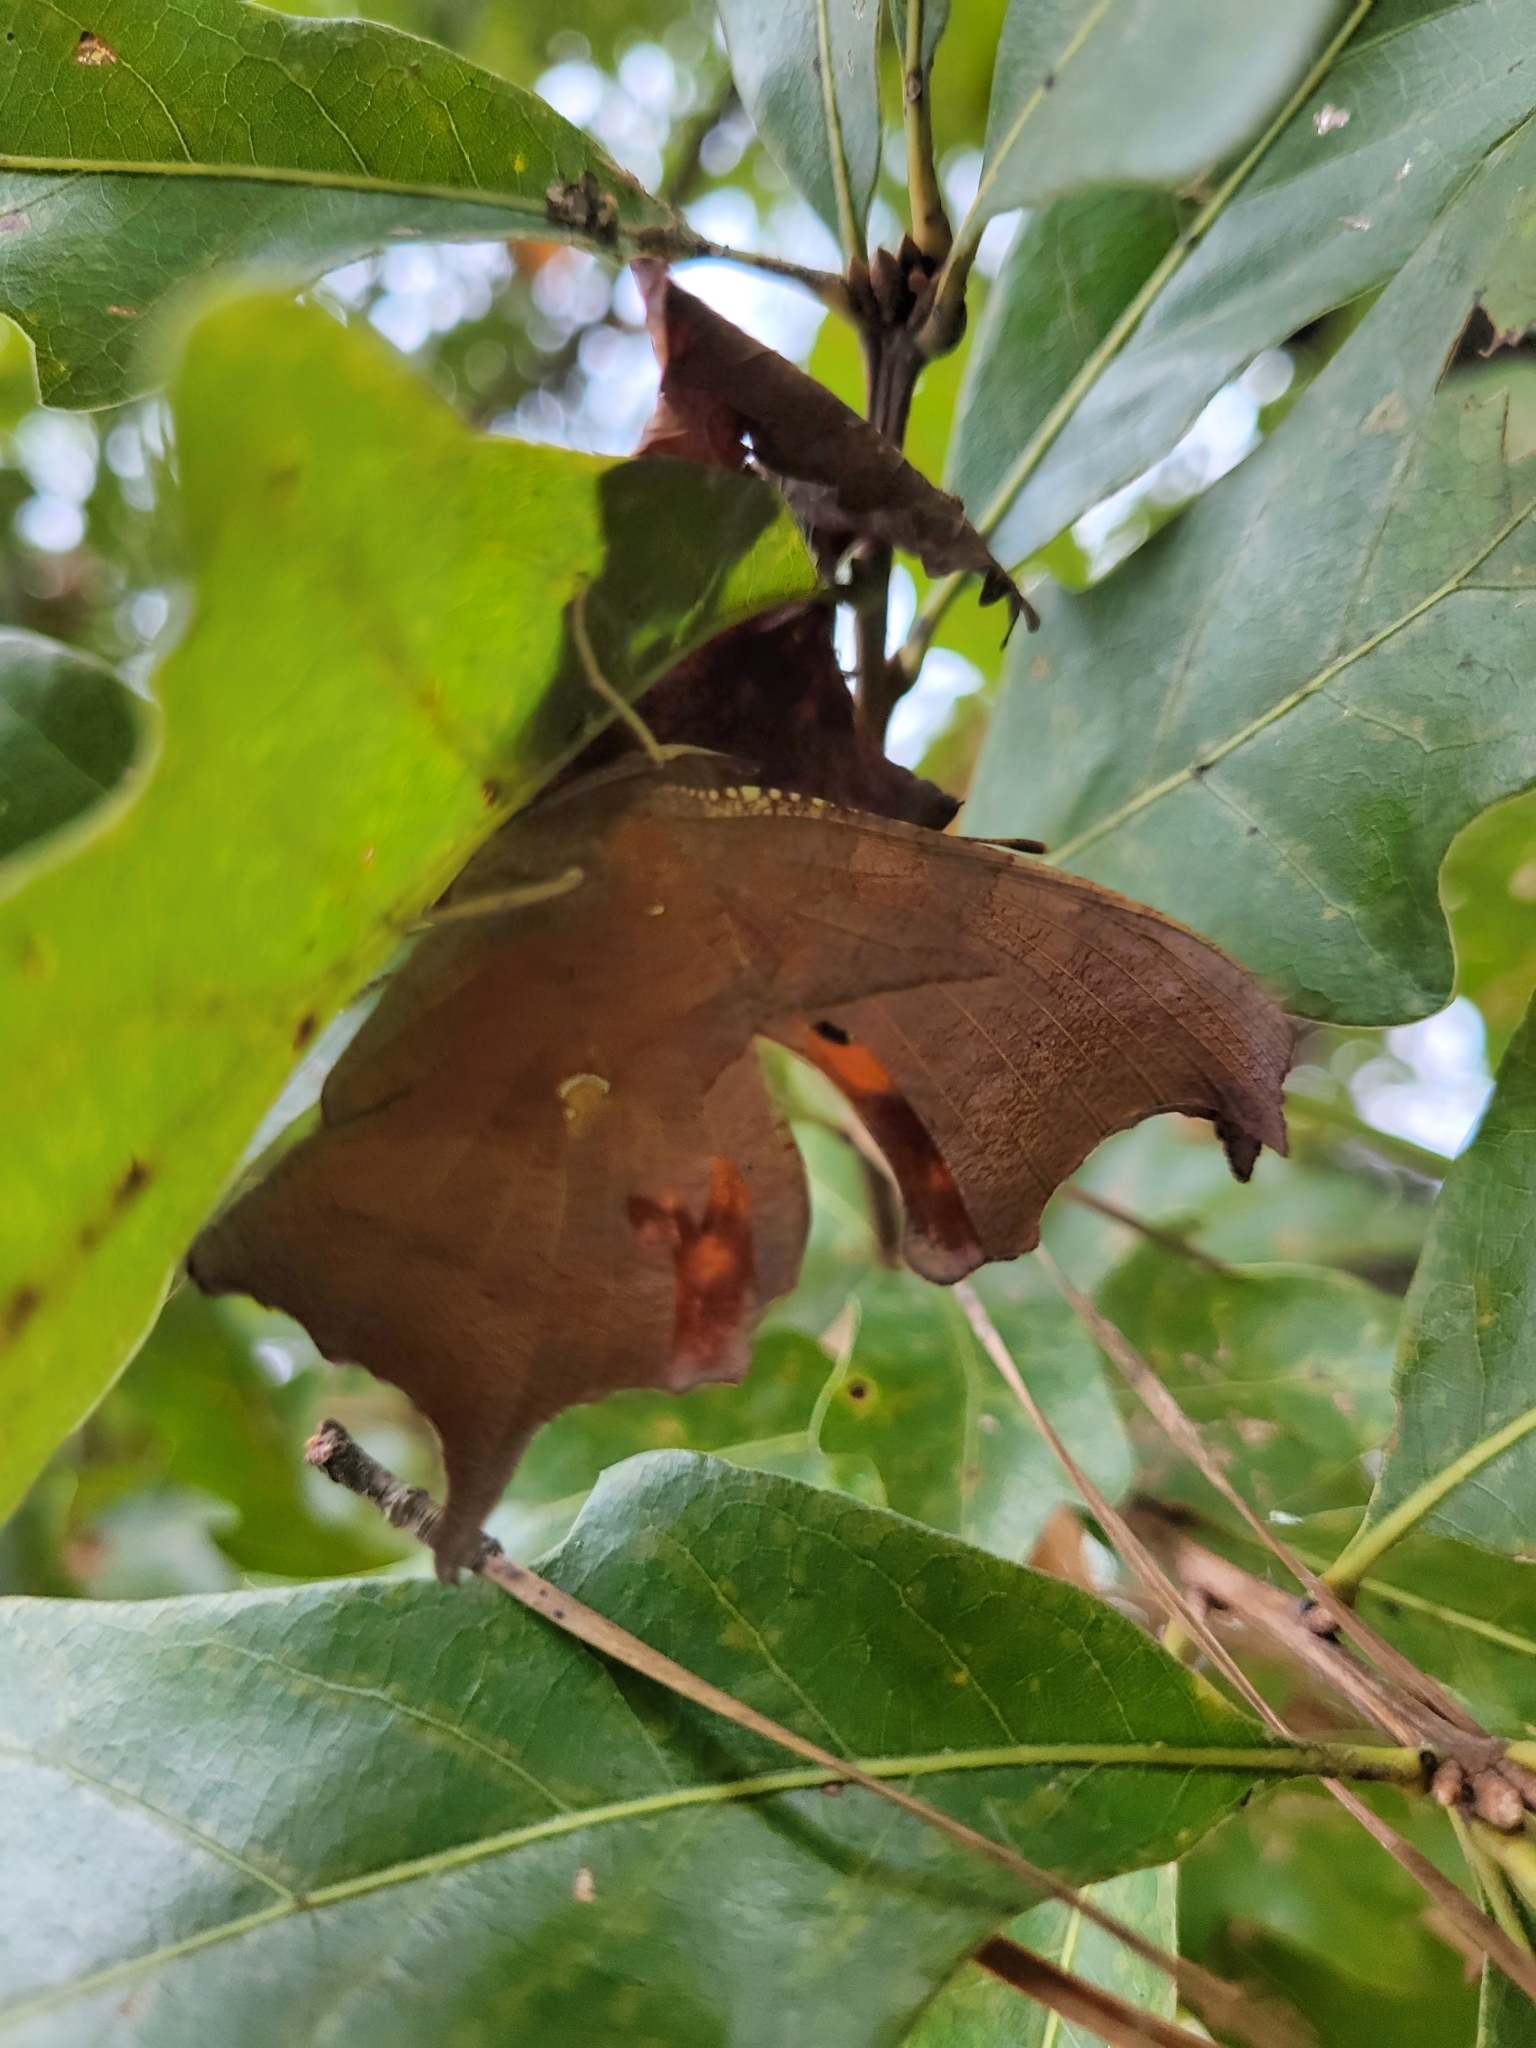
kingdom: Animalia
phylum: Arthropoda
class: Insecta
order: Lepidoptera
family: Nymphalidae
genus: Polygonia
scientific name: Polygonia interrogationis
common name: Question mark
